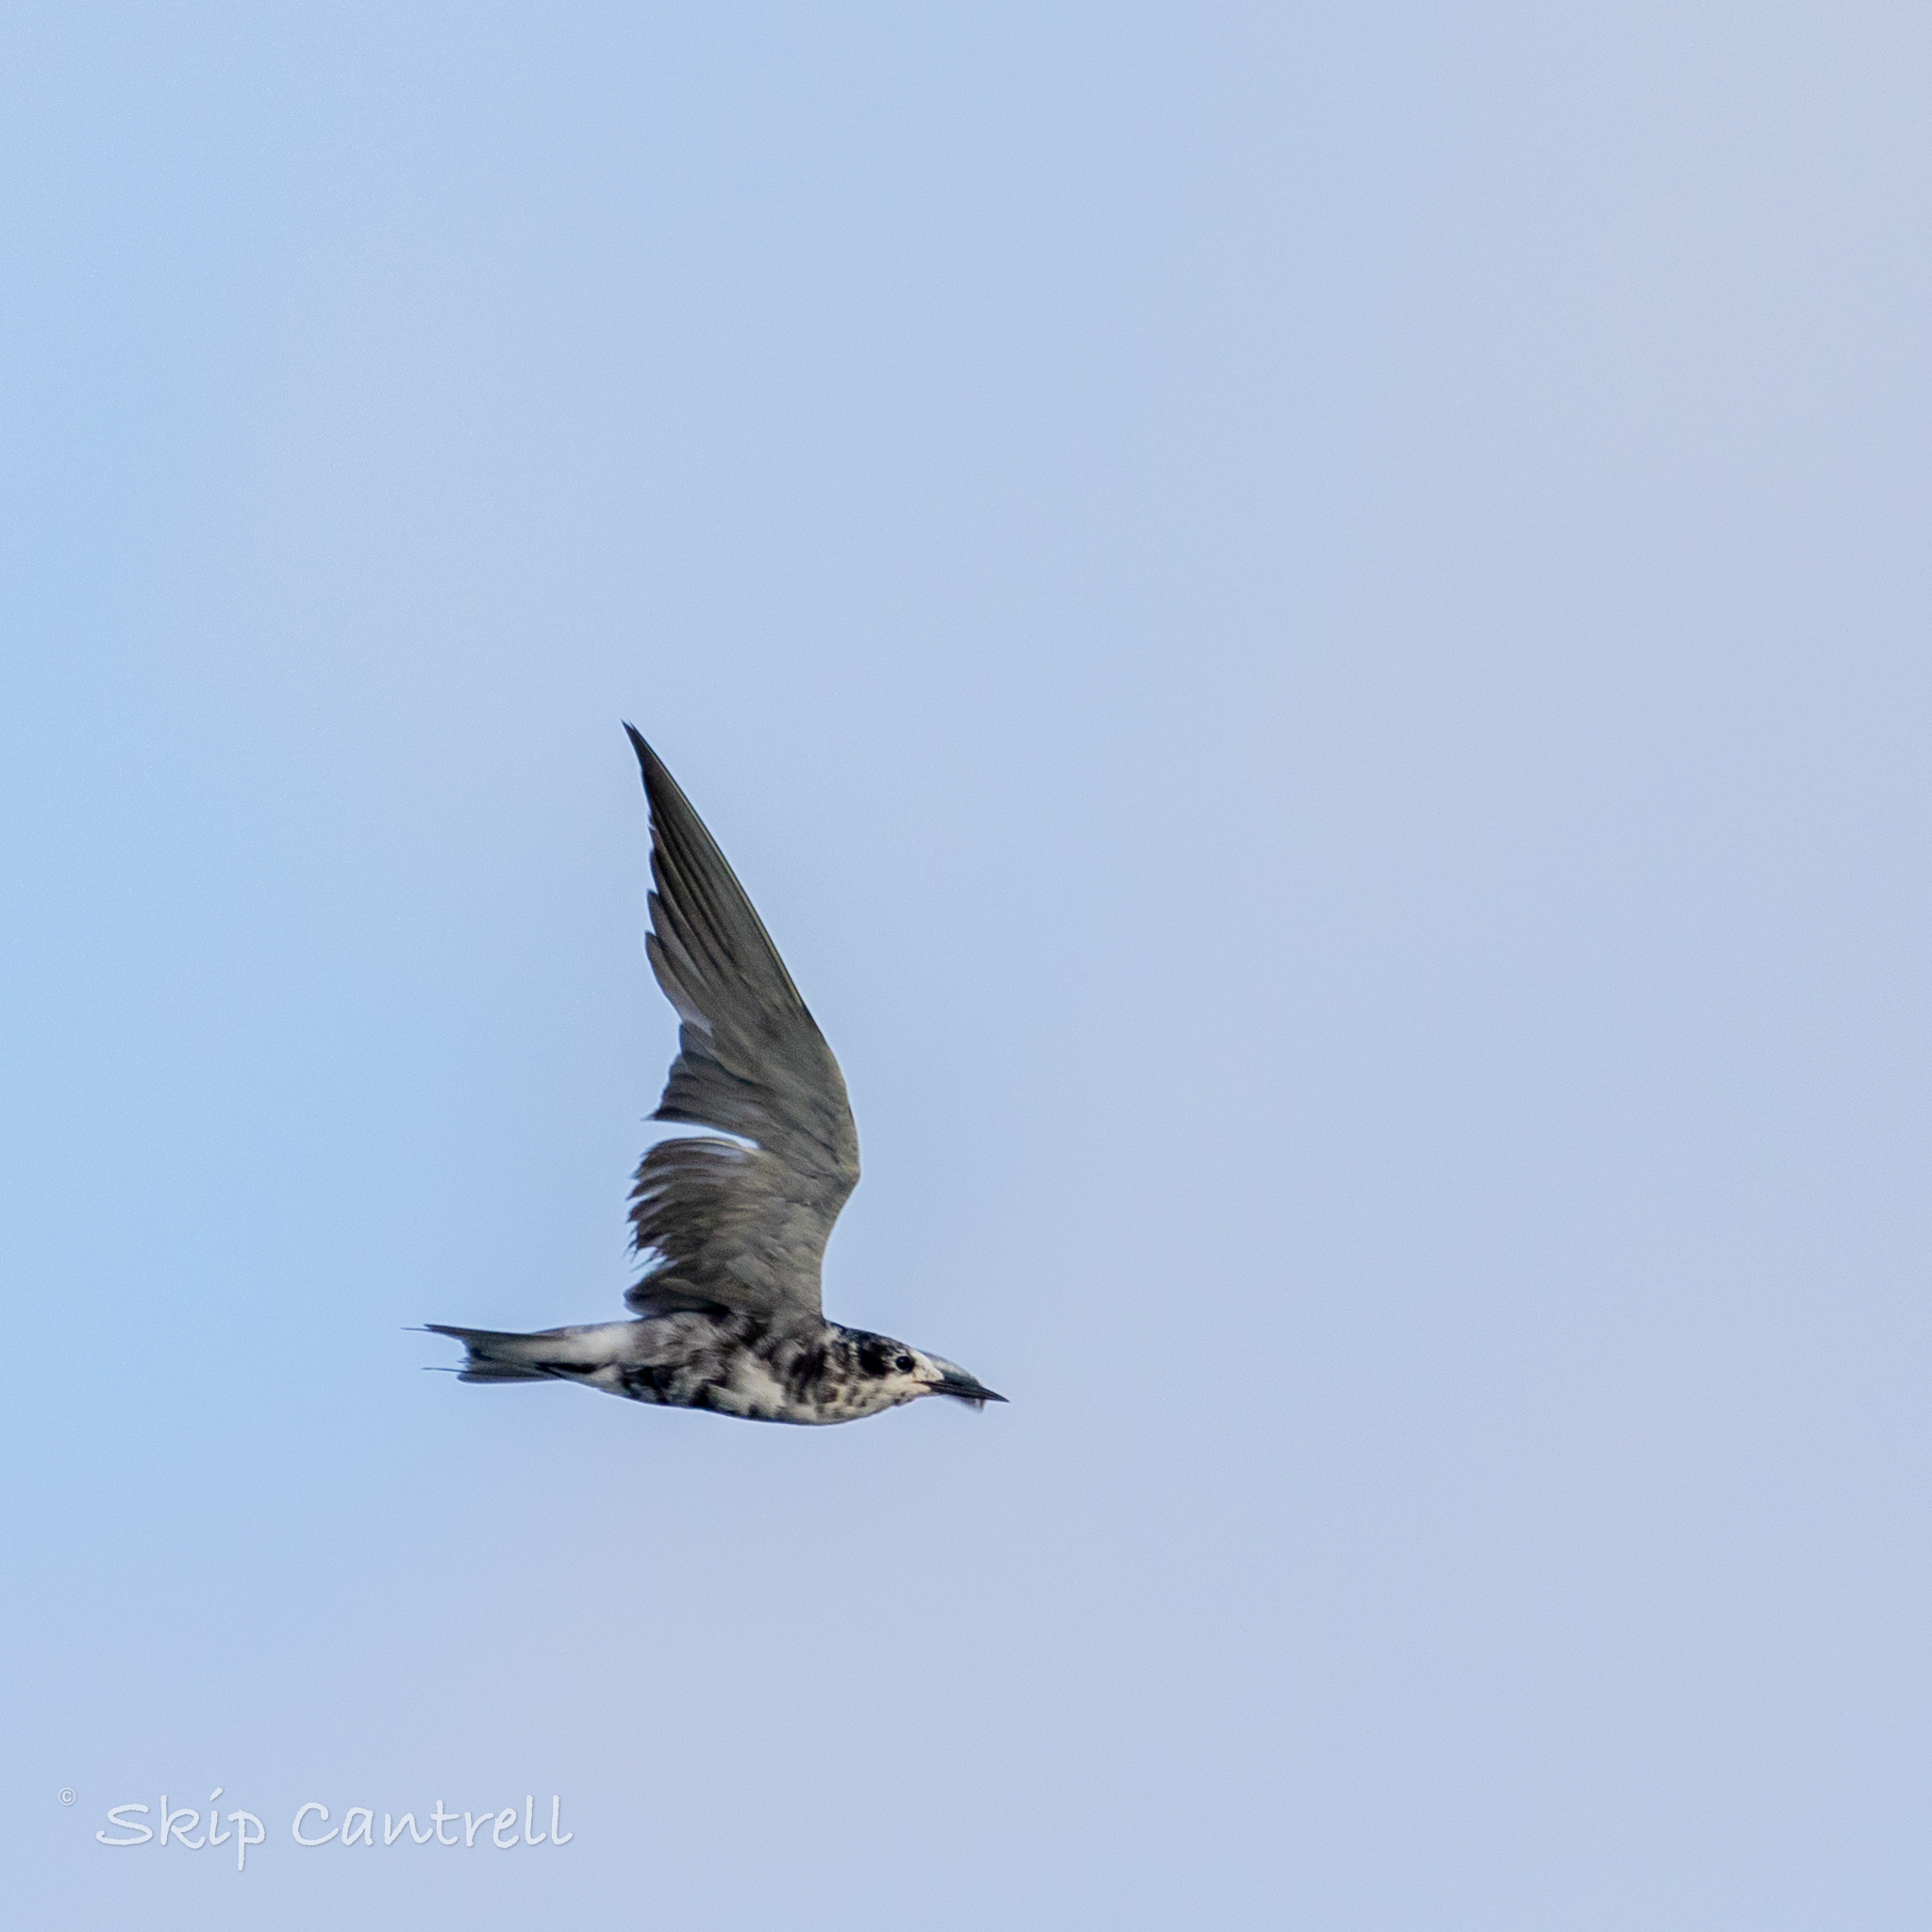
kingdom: Animalia
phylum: Chordata
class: Aves
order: Charadriiformes
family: Laridae
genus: Chlidonias
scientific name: Chlidonias niger
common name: Black tern
